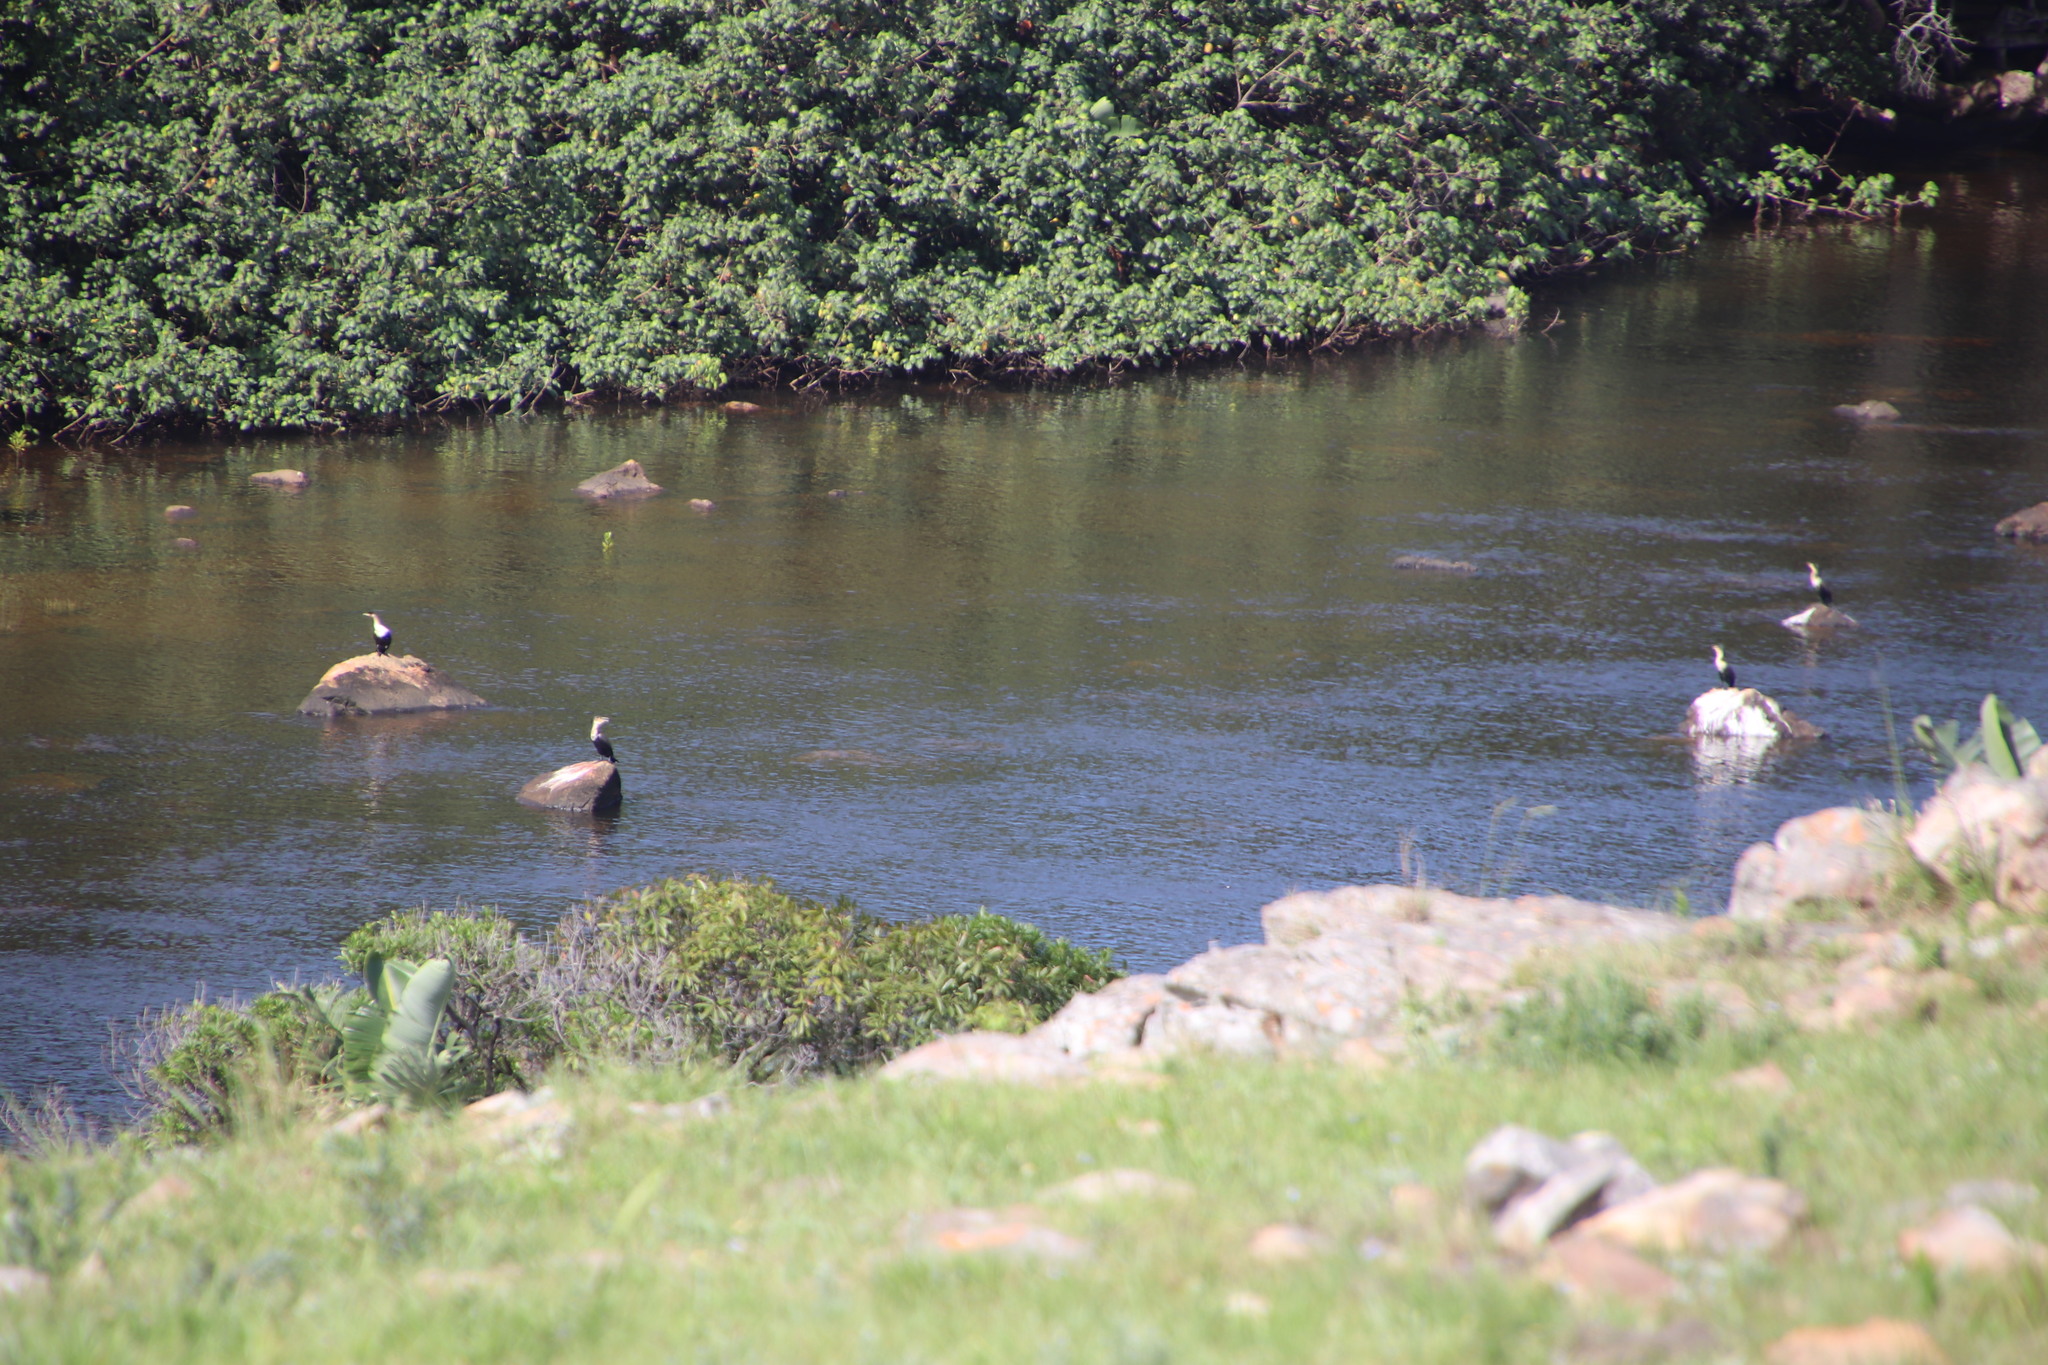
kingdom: Animalia
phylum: Chordata
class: Aves
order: Suliformes
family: Phalacrocoracidae
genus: Phalacrocorax
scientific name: Phalacrocorax carbo
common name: Great cormorant
